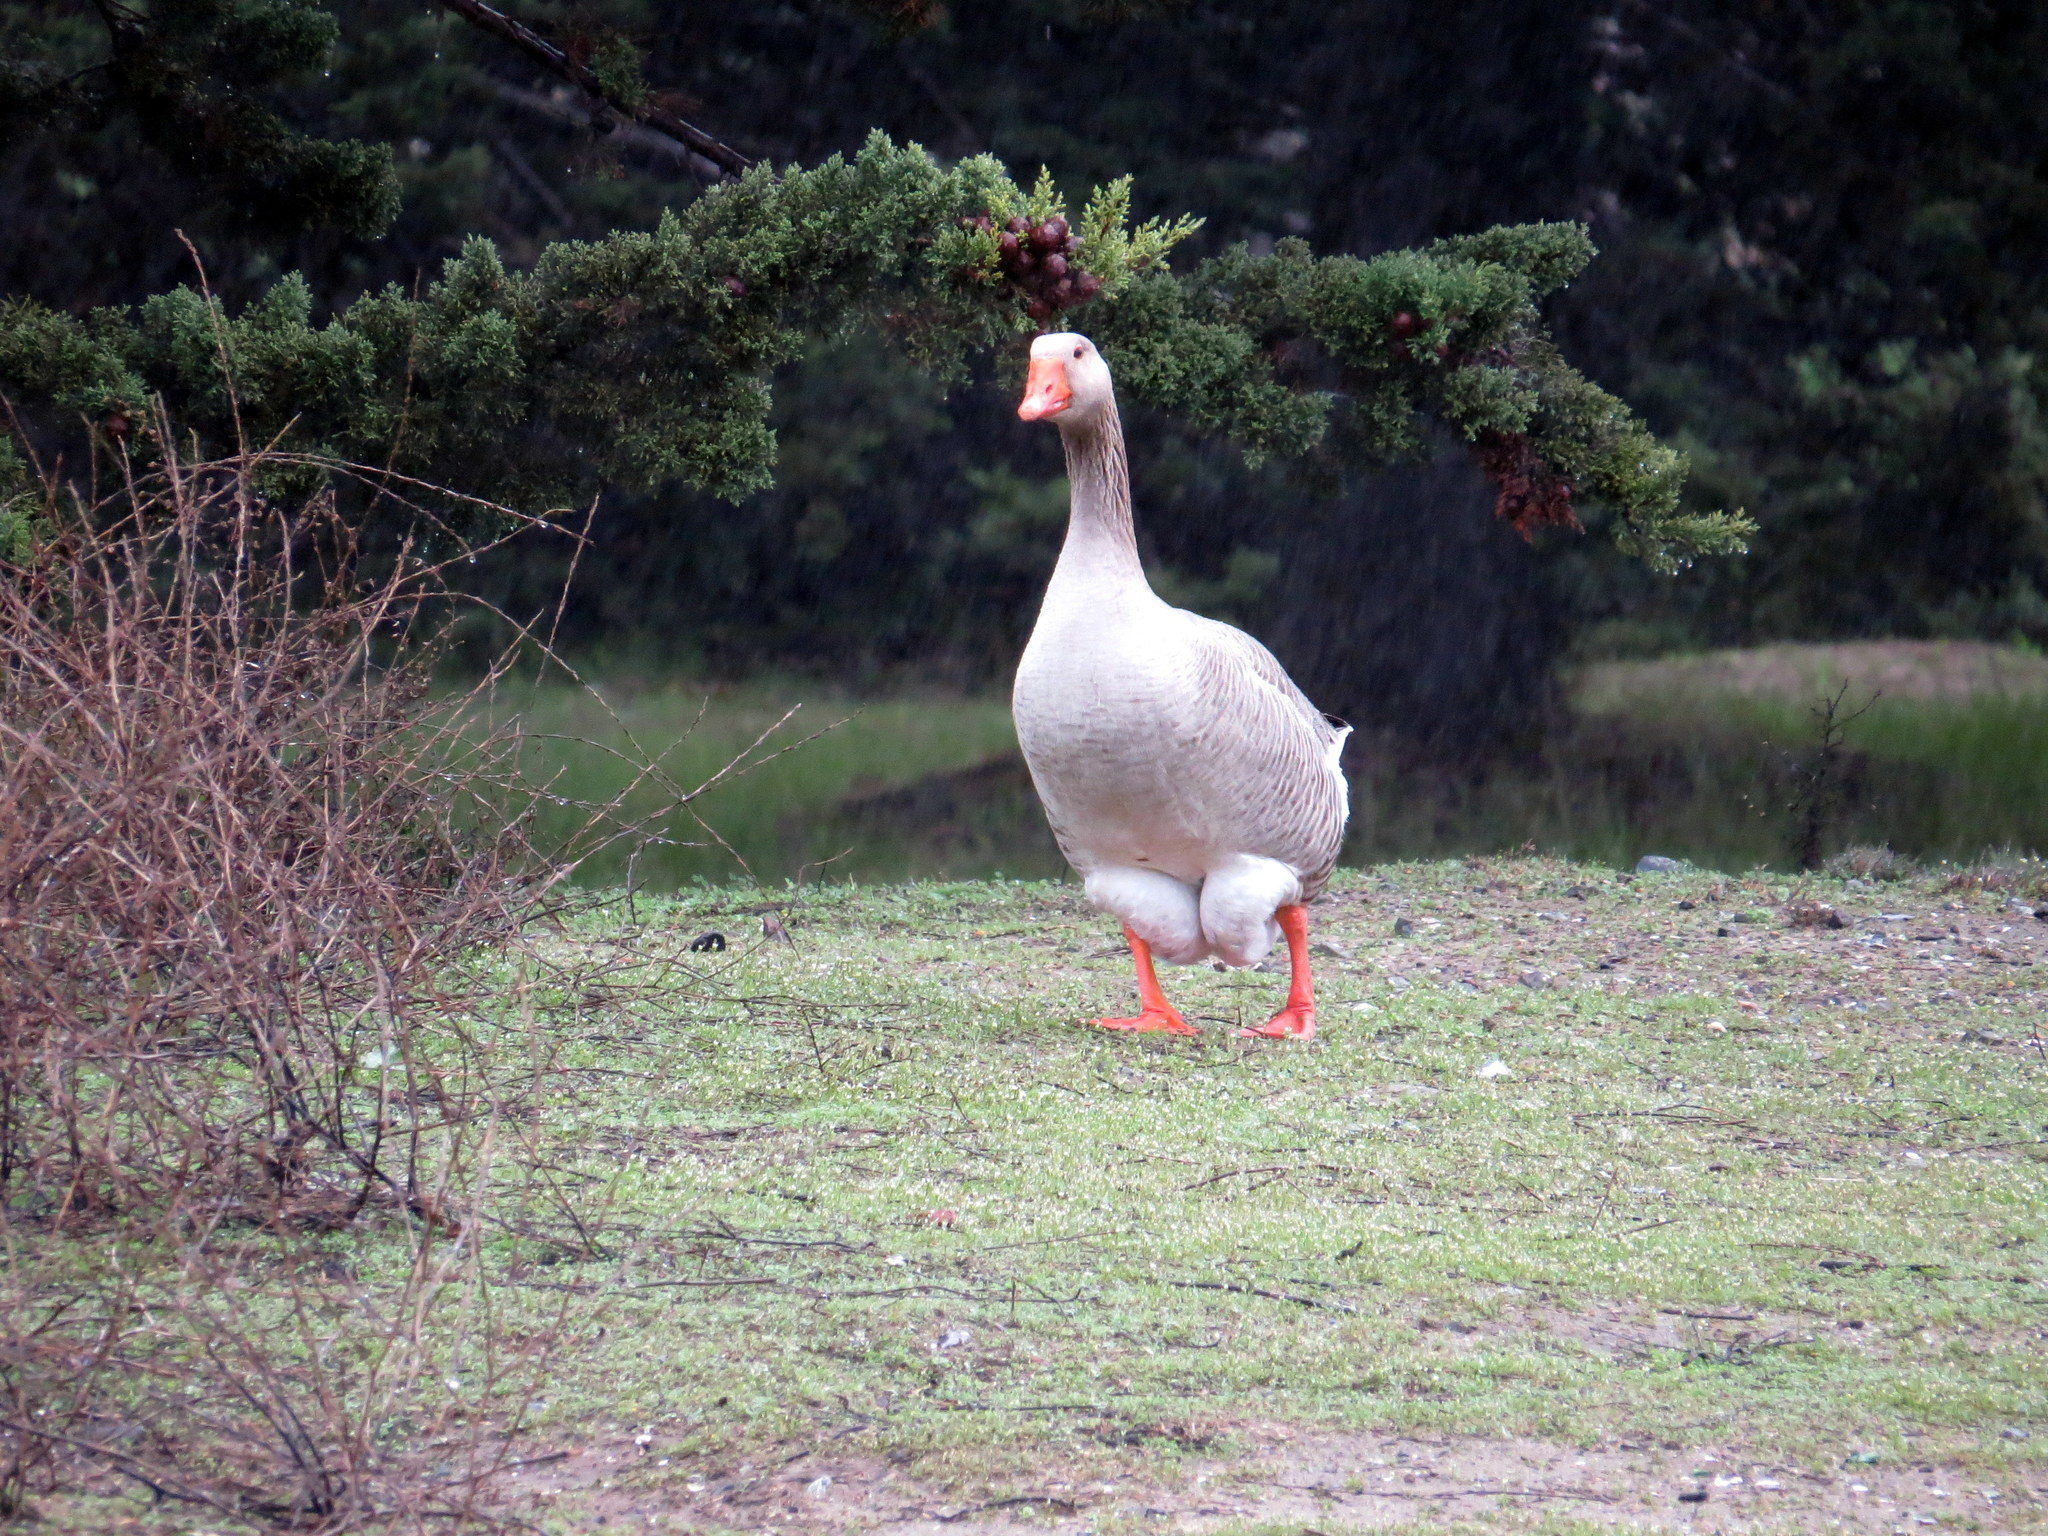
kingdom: Animalia
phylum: Chordata
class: Aves
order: Anseriformes
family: Anatidae
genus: Anser
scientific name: Anser anser
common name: Greylag goose
